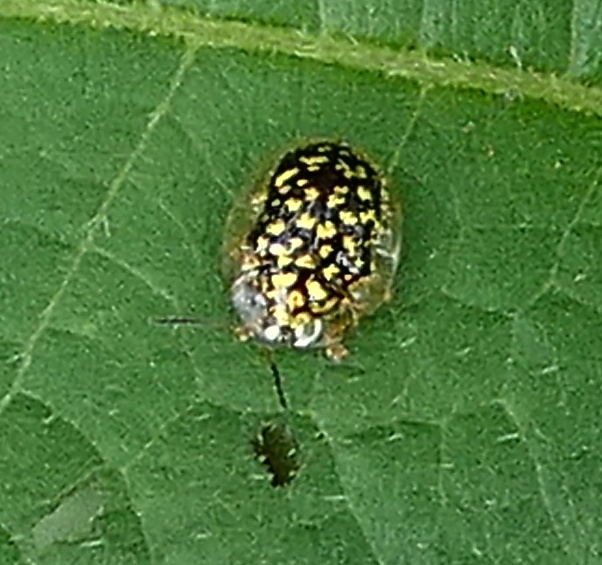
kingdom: Animalia
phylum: Arthropoda
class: Insecta
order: Coleoptera
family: Chrysomelidae
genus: Cteisella
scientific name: Cteisella guttigera
